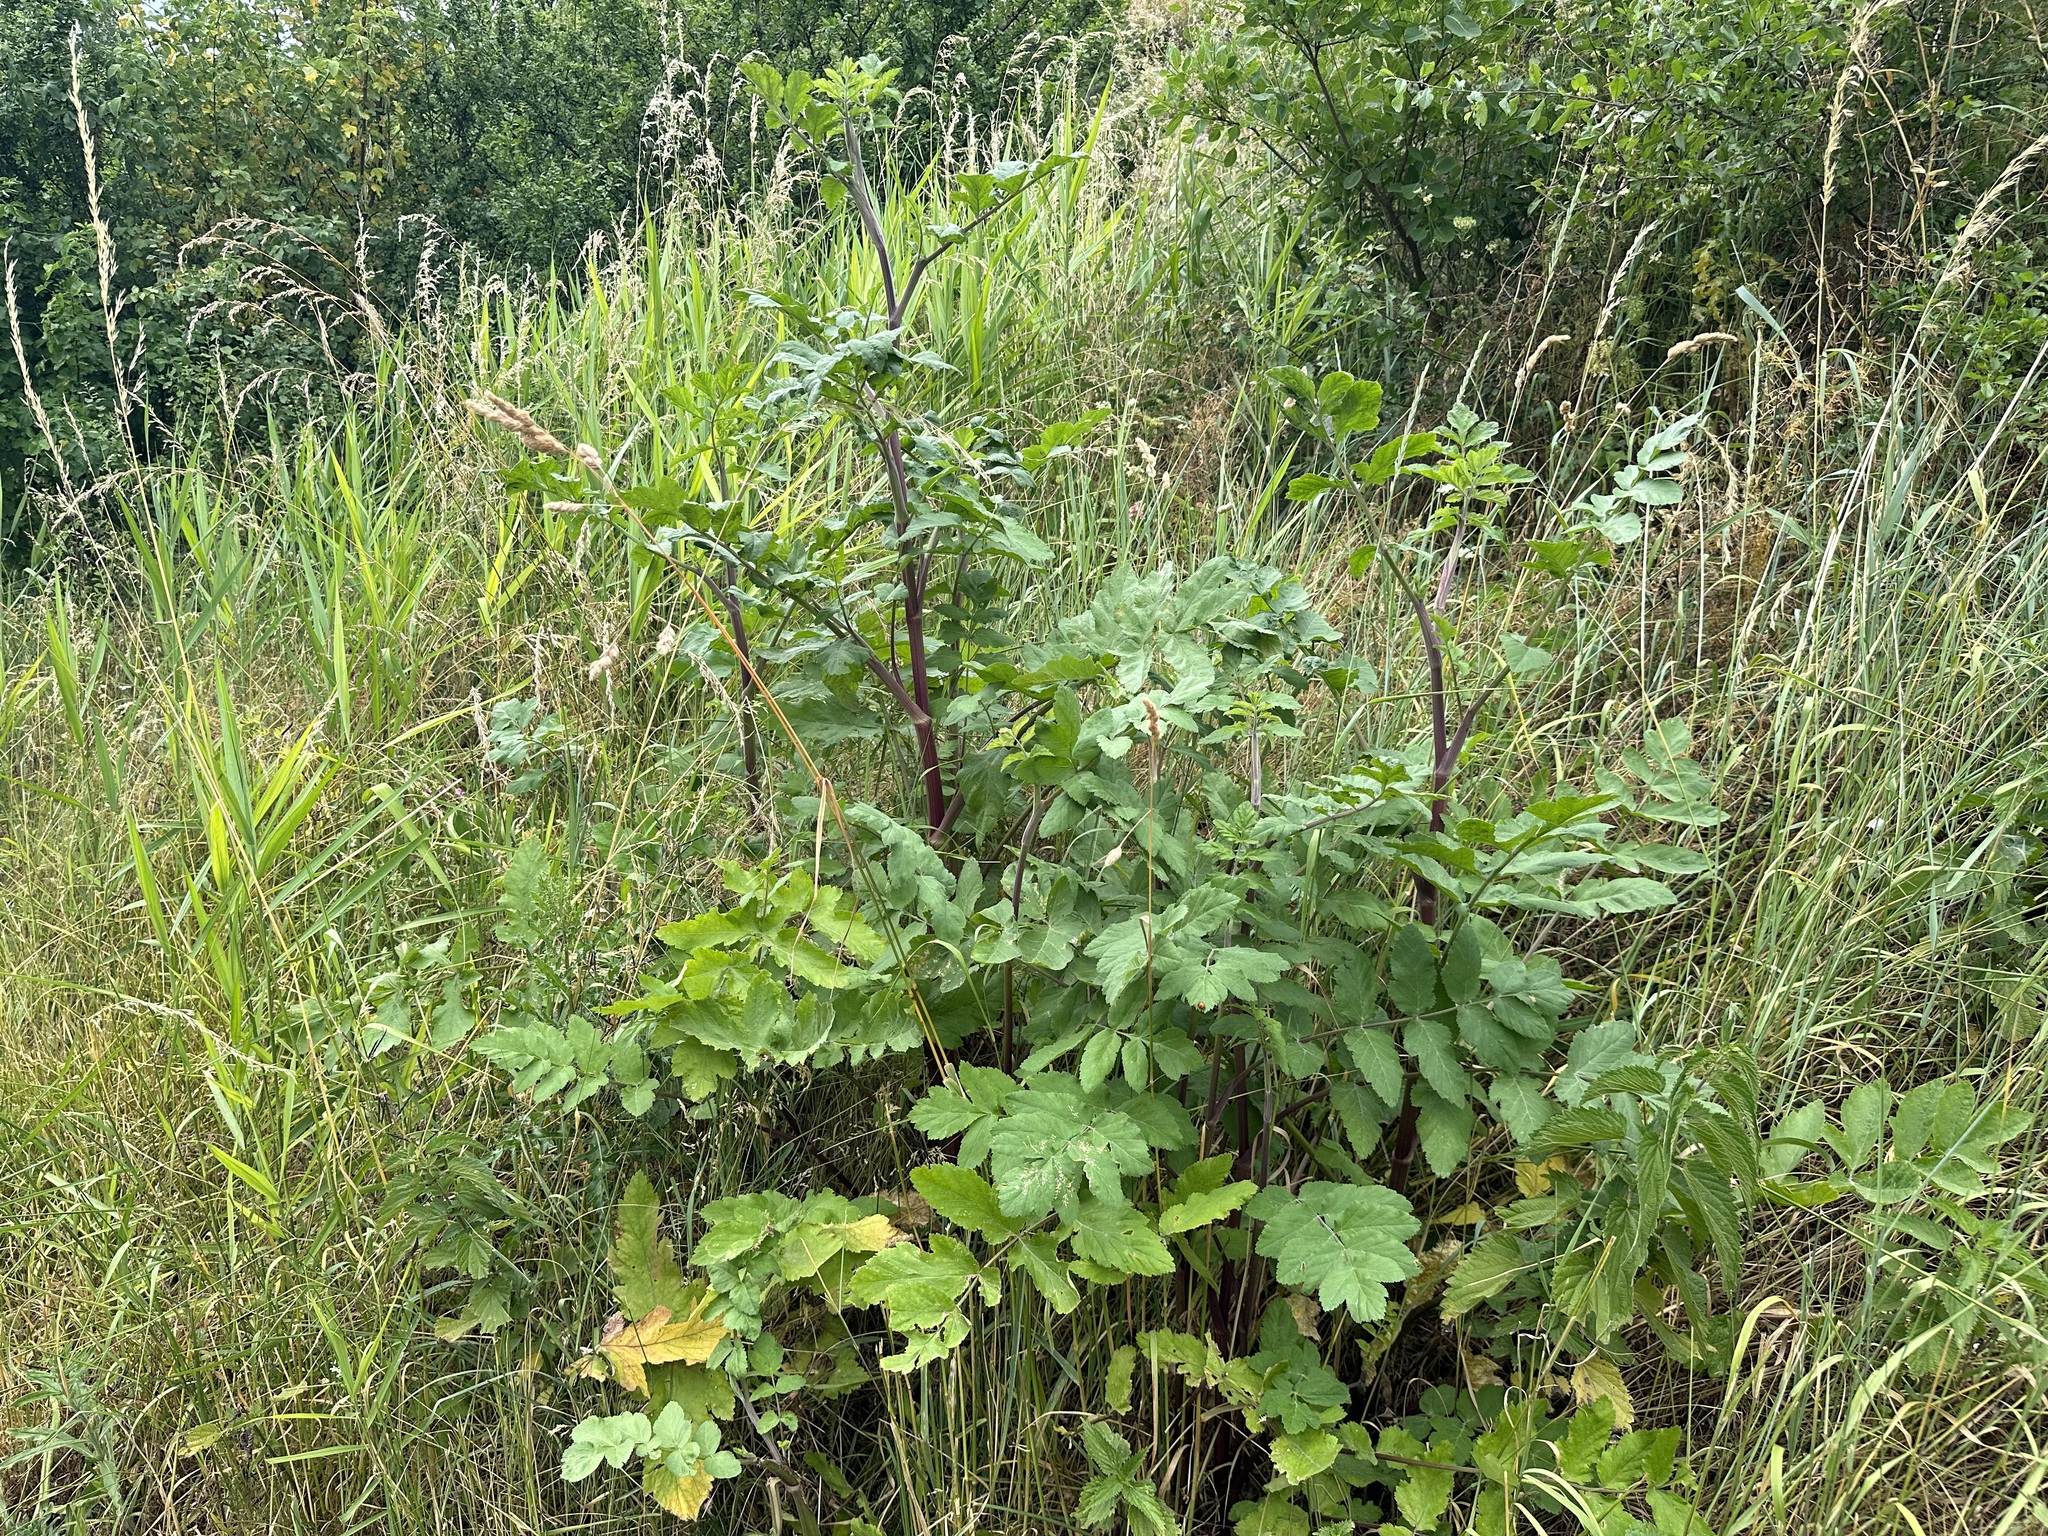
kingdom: Plantae
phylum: Tracheophyta
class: Magnoliopsida
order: Apiales
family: Apiaceae
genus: Pastinaca
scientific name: Pastinaca sativa
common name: Wild parsnip
